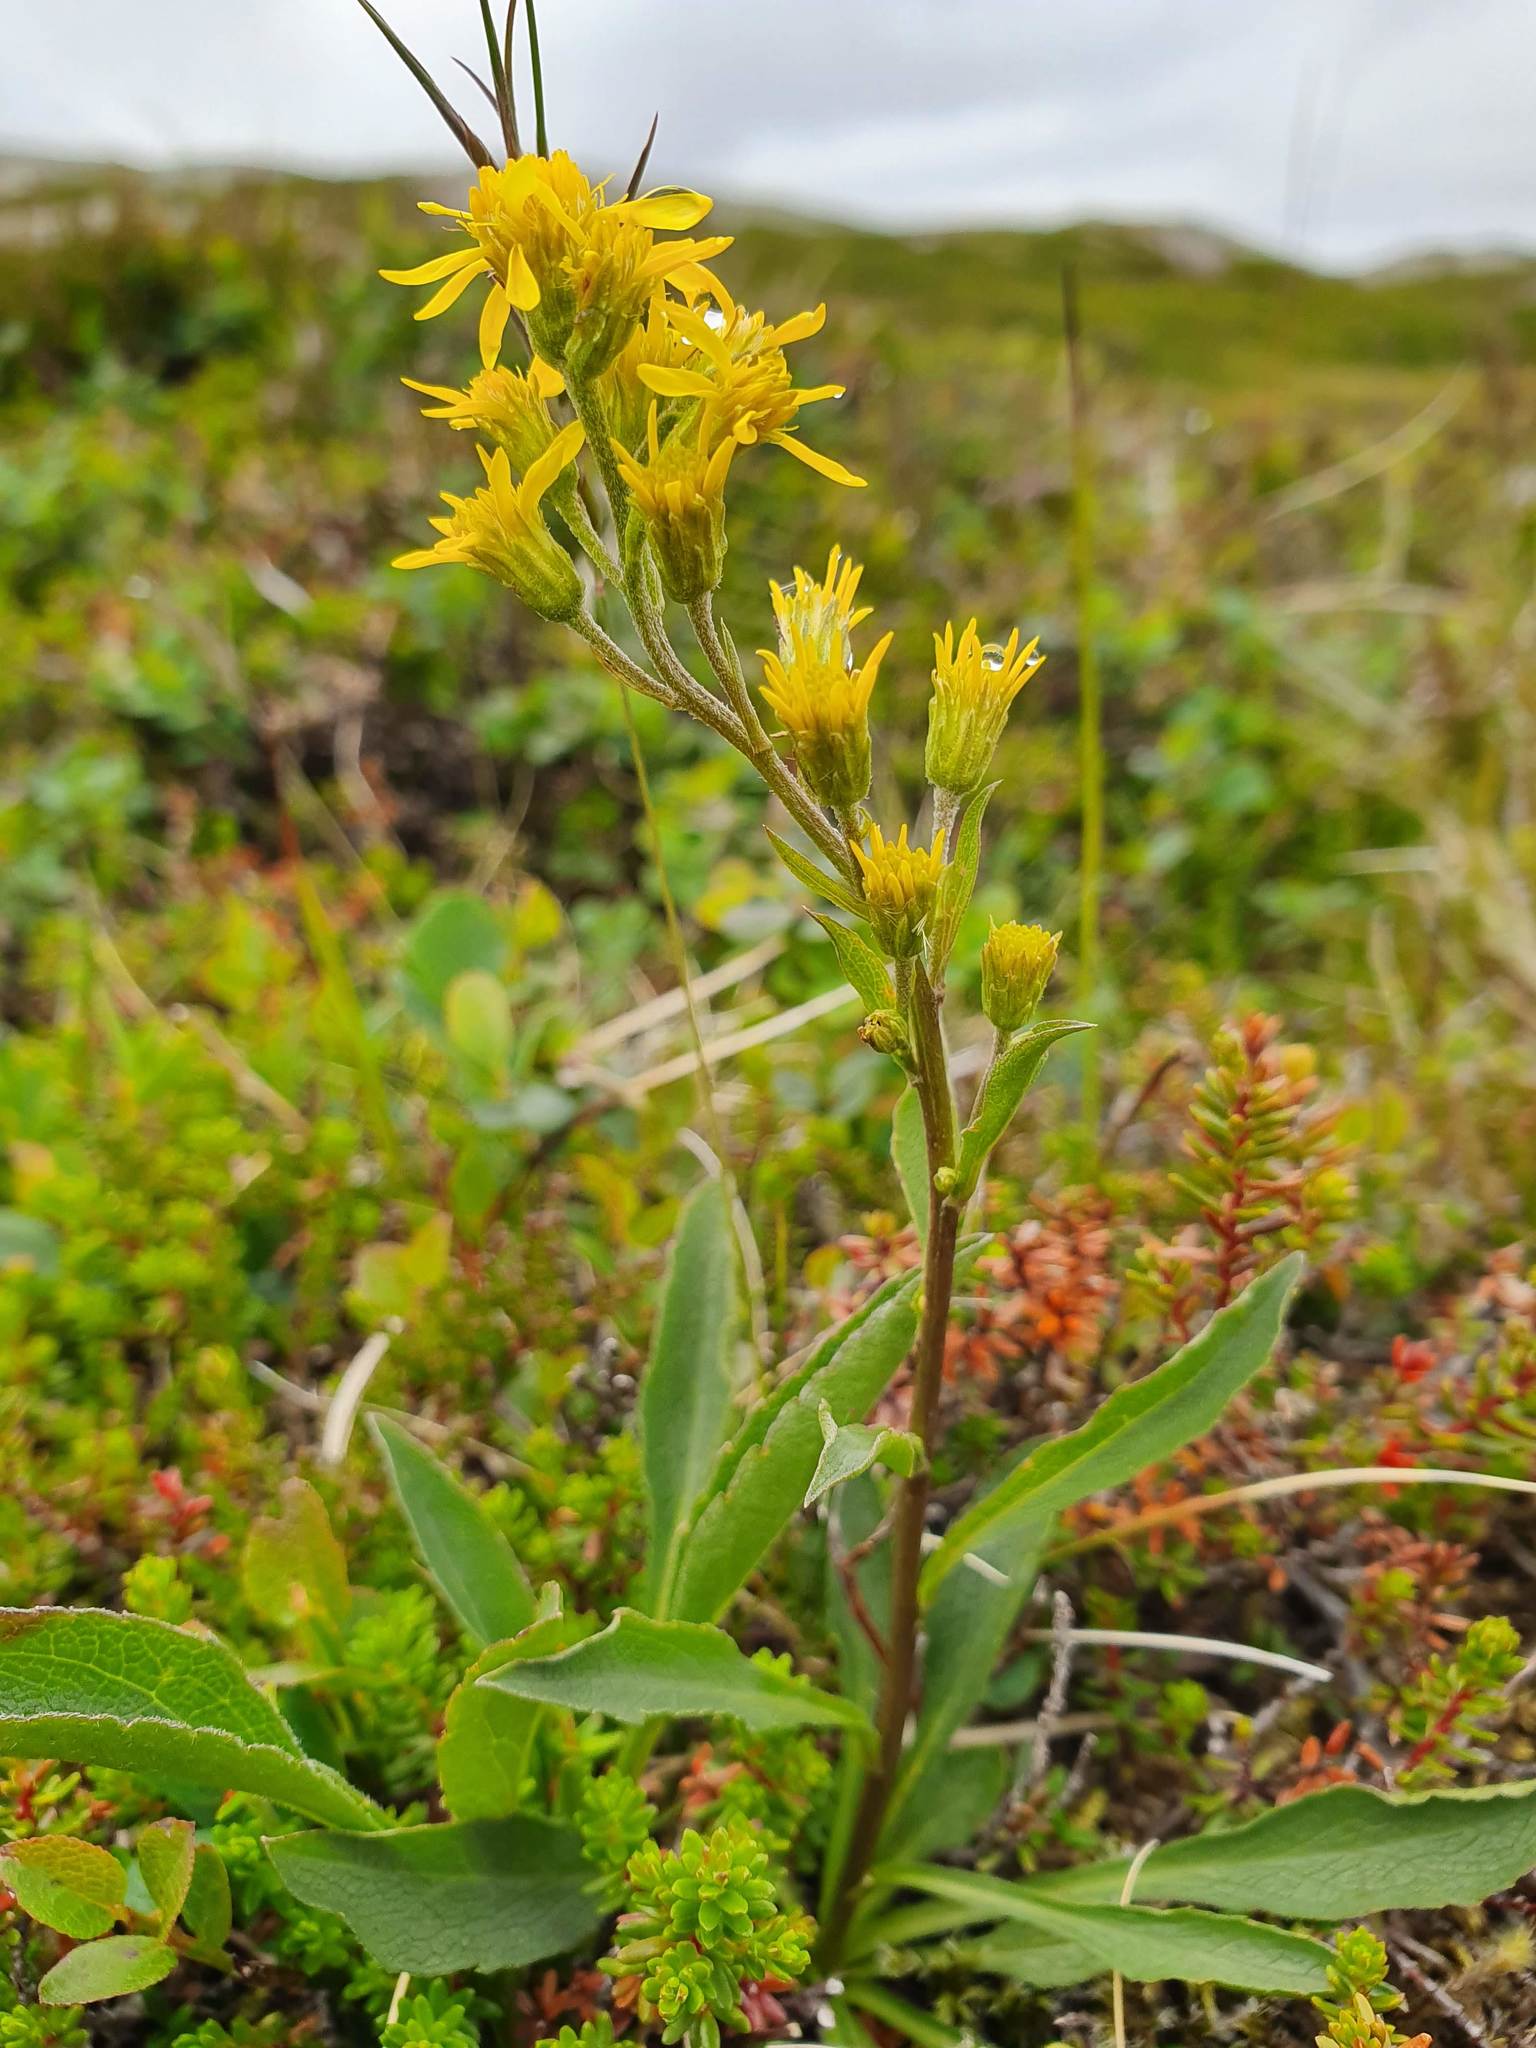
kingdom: Plantae
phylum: Tracheophyta
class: Magnoliopsida
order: Asterales
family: Asteraceae
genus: Solidago
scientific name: Solidago virgaurea
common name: Goldenrod
